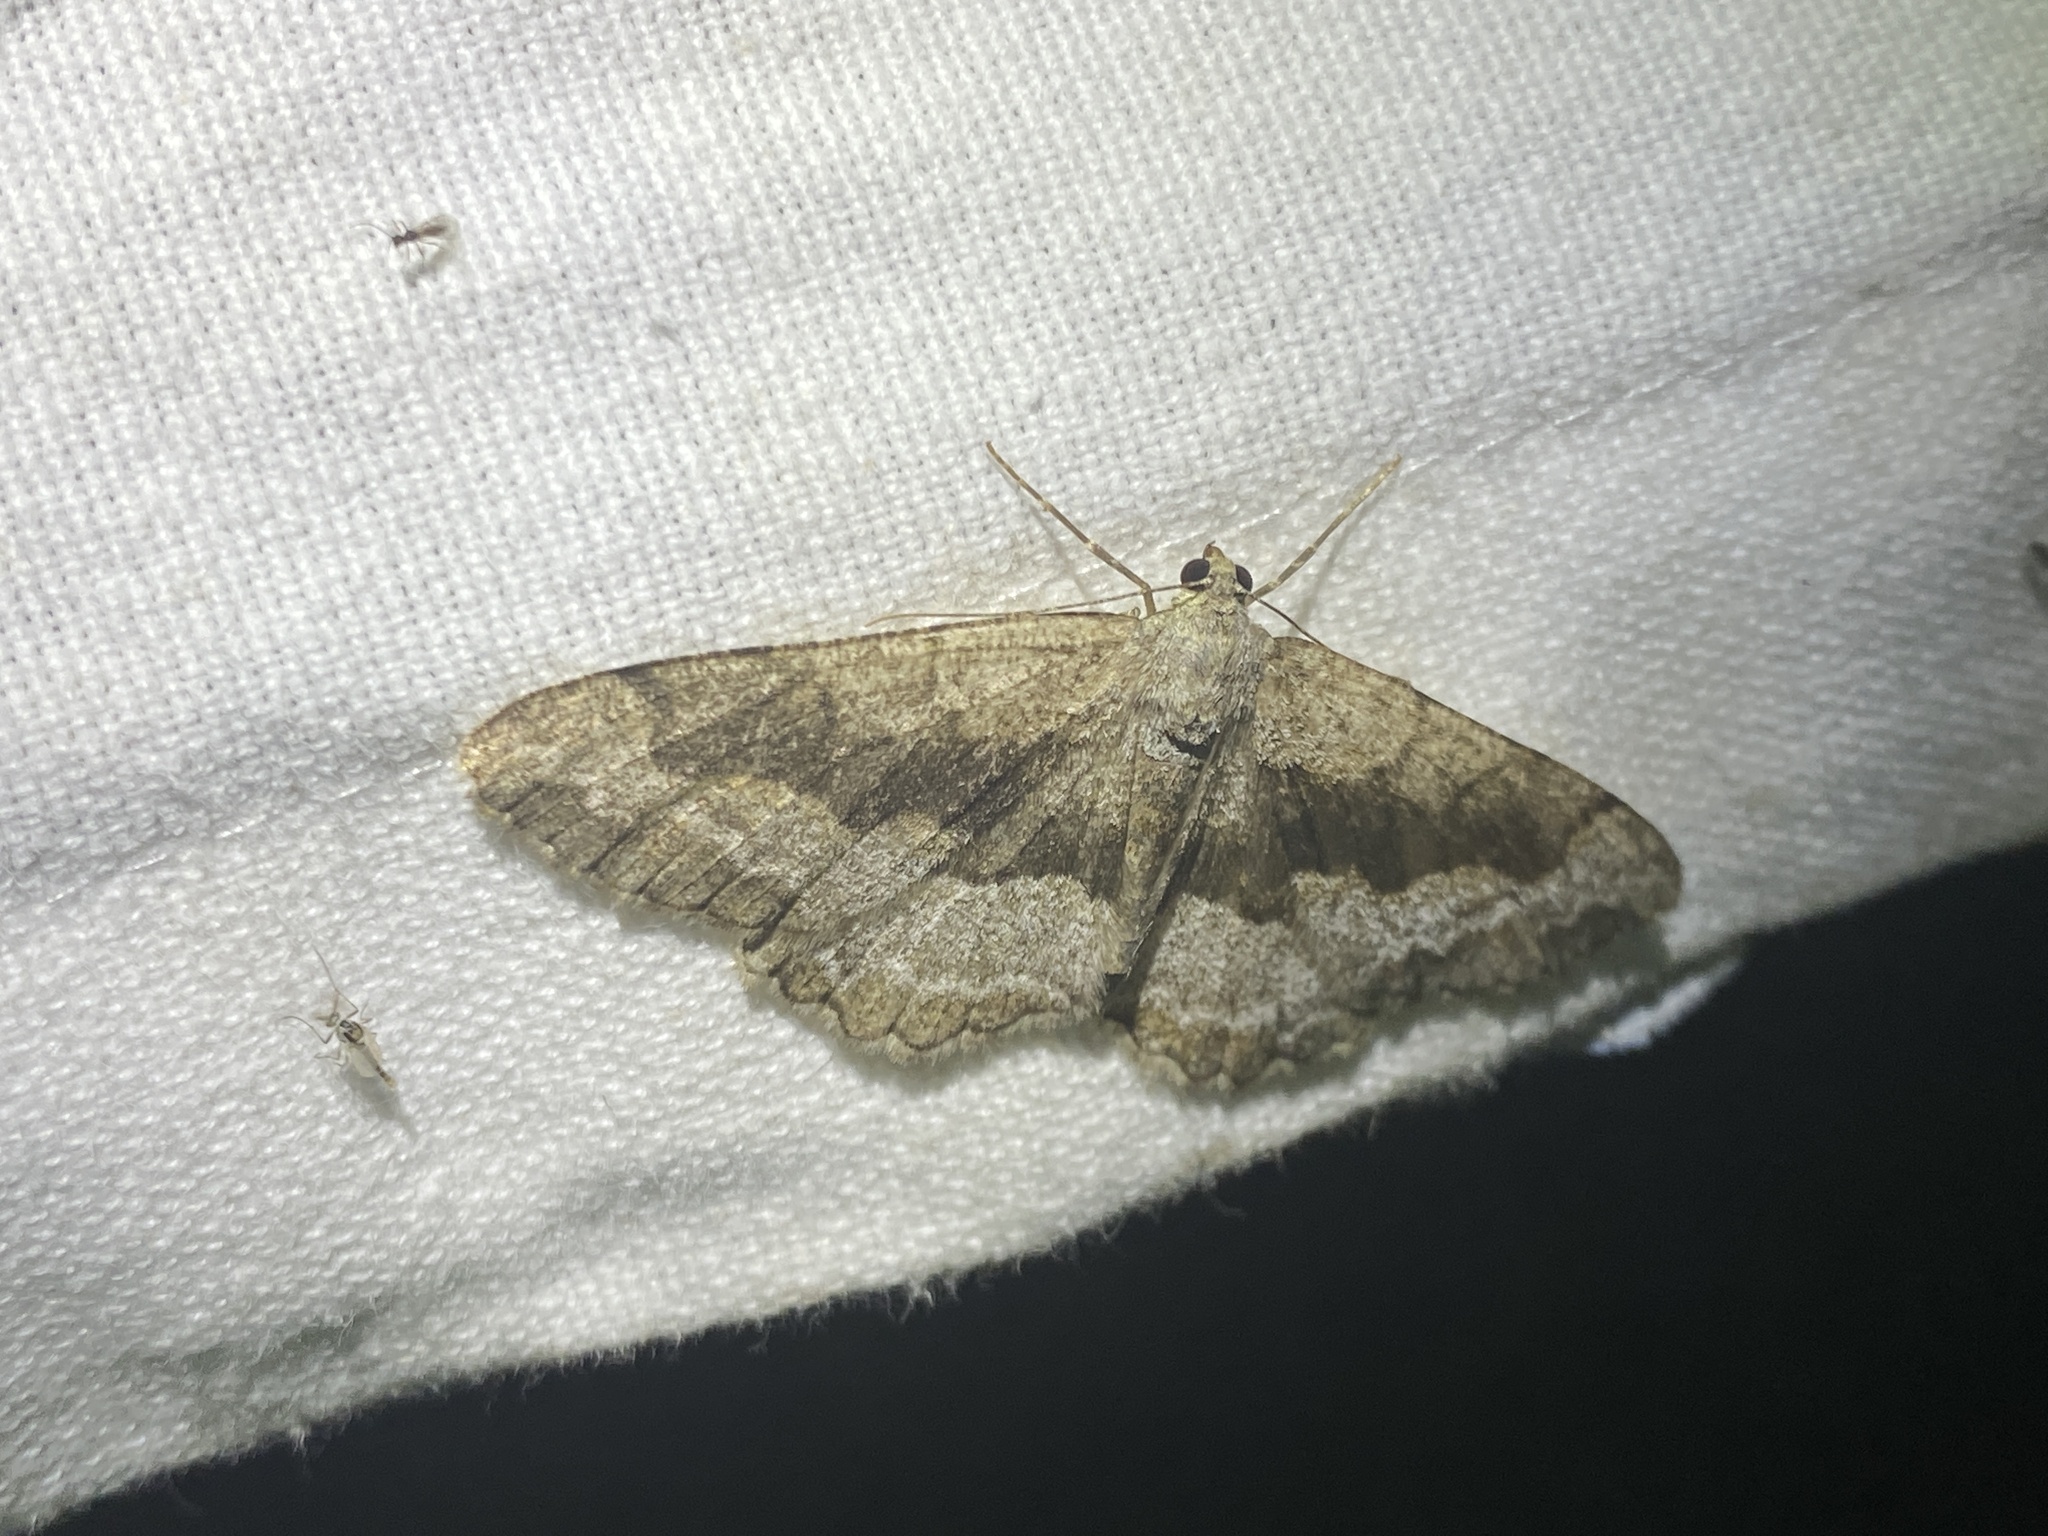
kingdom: Animalia
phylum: Arthropoda
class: Insecta
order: Lepidoptera
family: Geometridae
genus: Alcis
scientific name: Alcis repandata
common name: Mottled beauty
